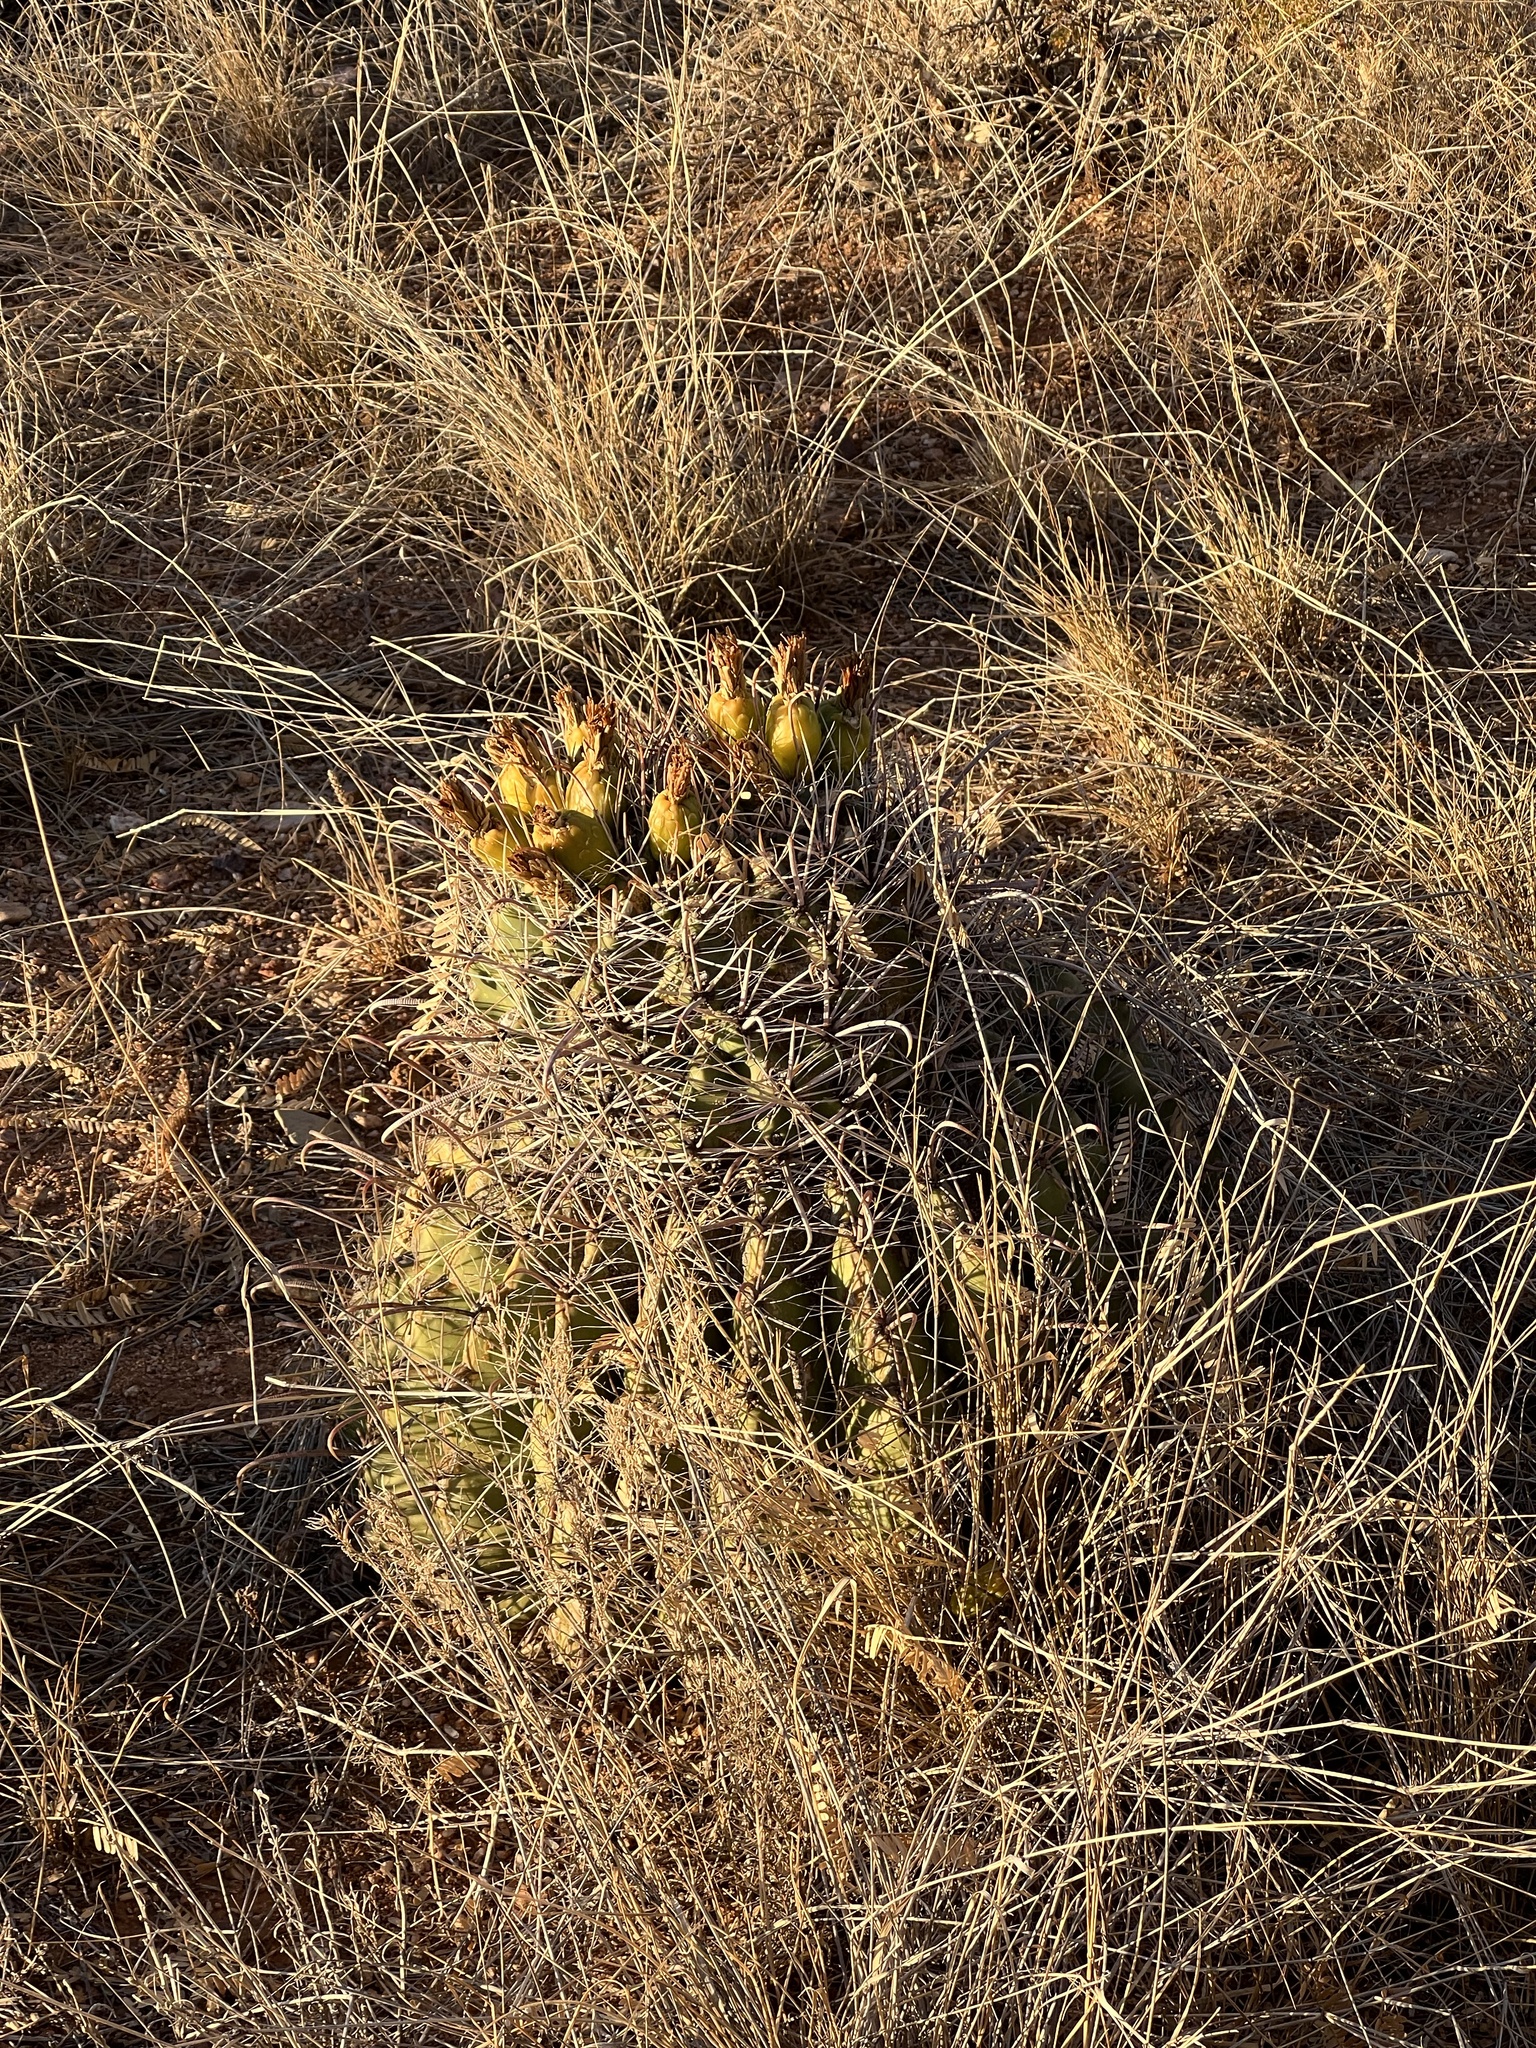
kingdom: Plantae
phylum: Tracheophyta
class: Magnoliopsida
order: Caryophyllales
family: Cactaceae
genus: Ferocactus
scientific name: Ferocactus wislizeni
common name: Candy barrel cactus
